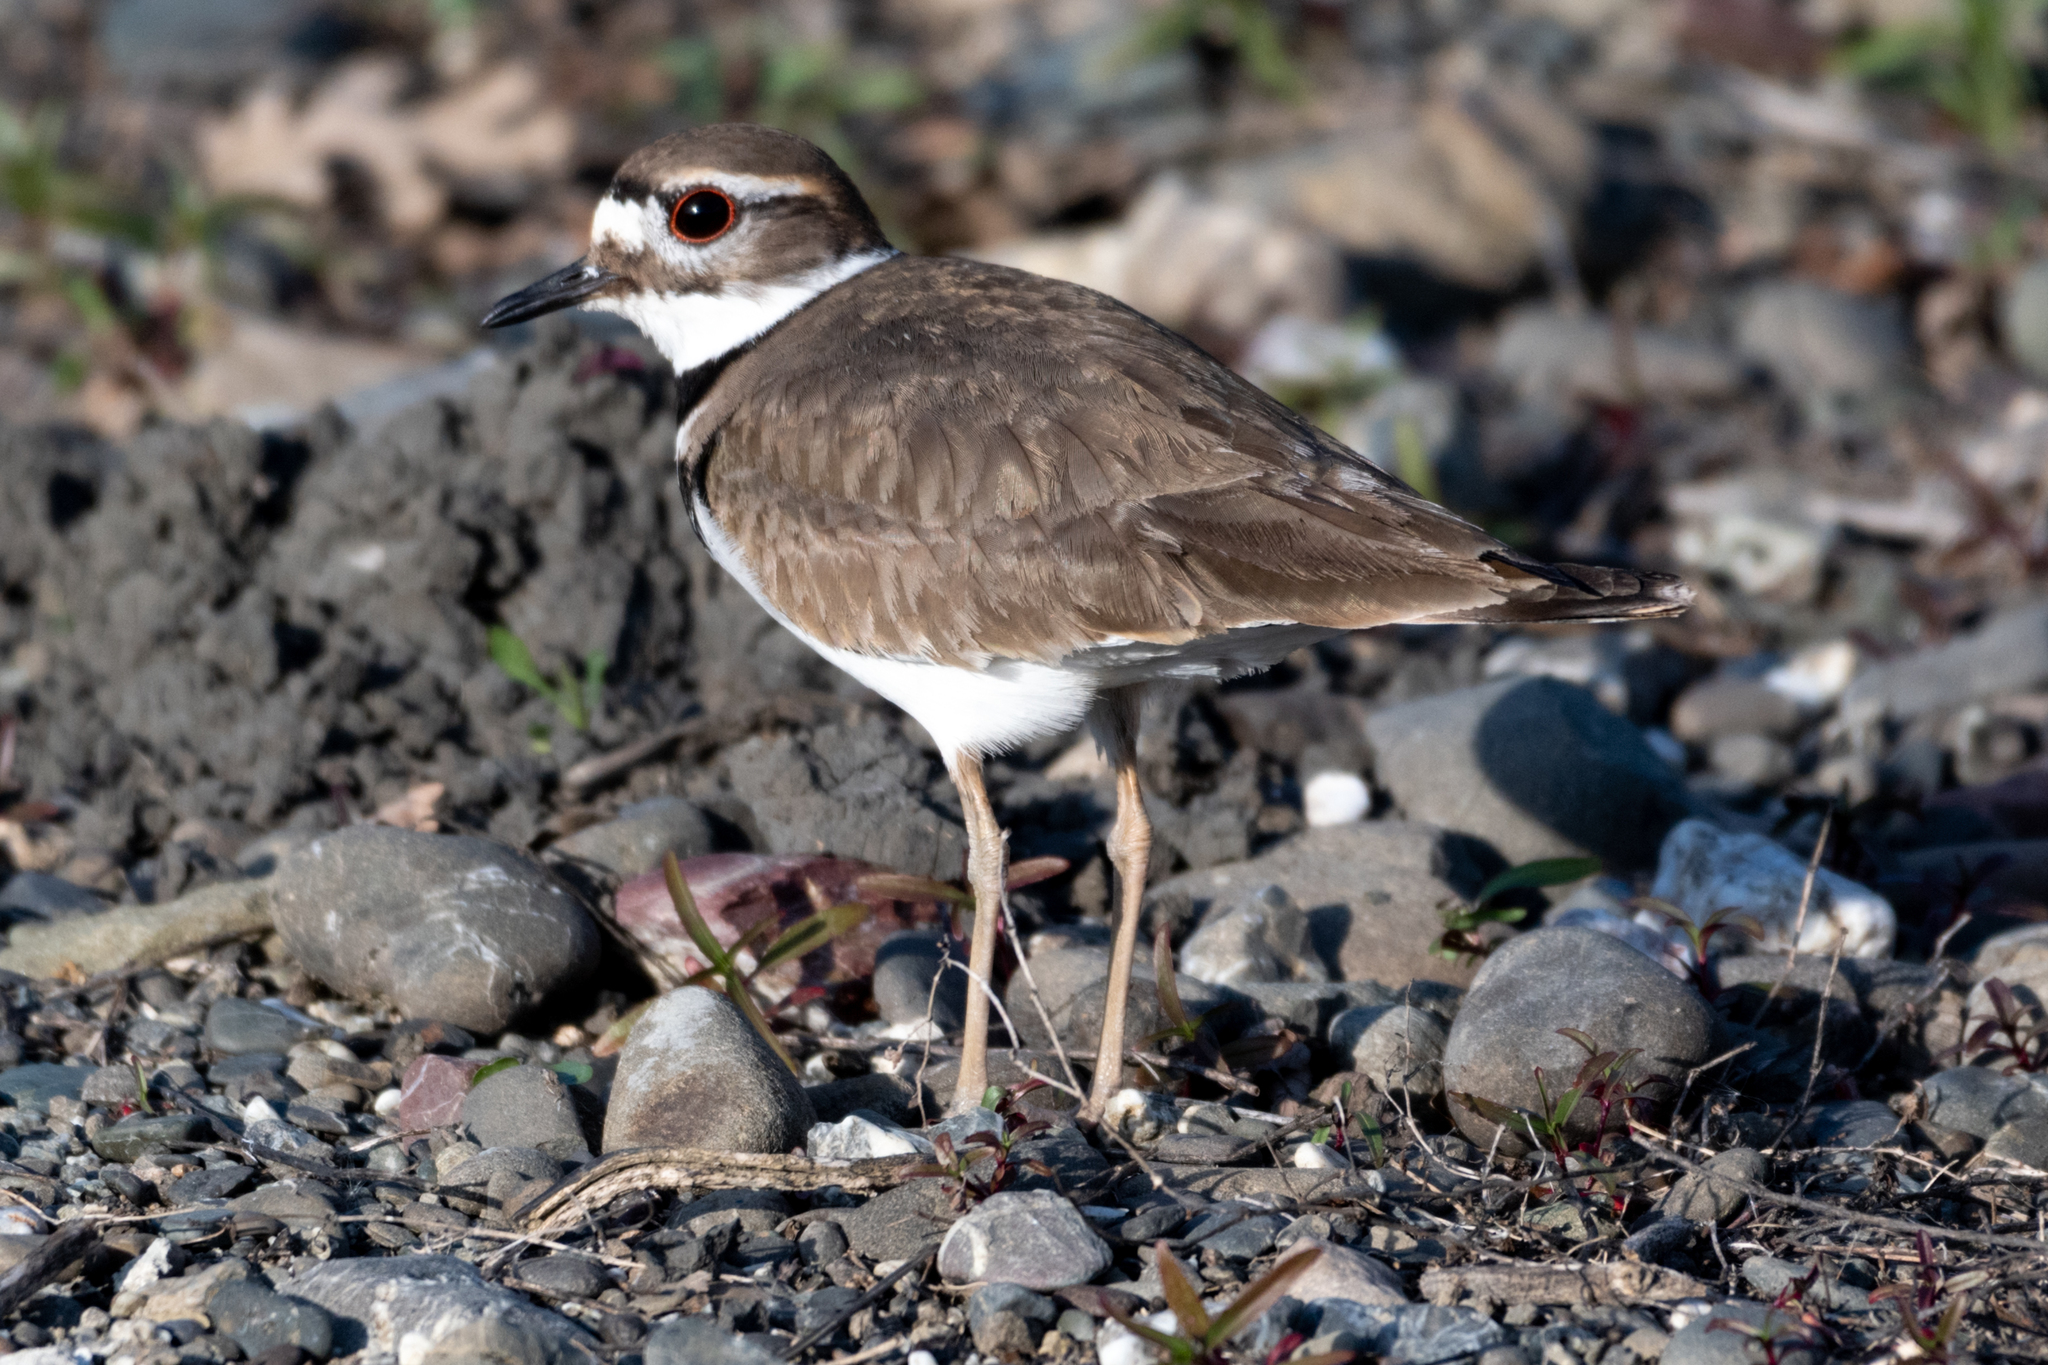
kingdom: Animalia
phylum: Chordata
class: Aves
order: Charadriiformes
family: Charadriidae
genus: Charadrius
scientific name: Charadrius vociferus
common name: Killdeer
